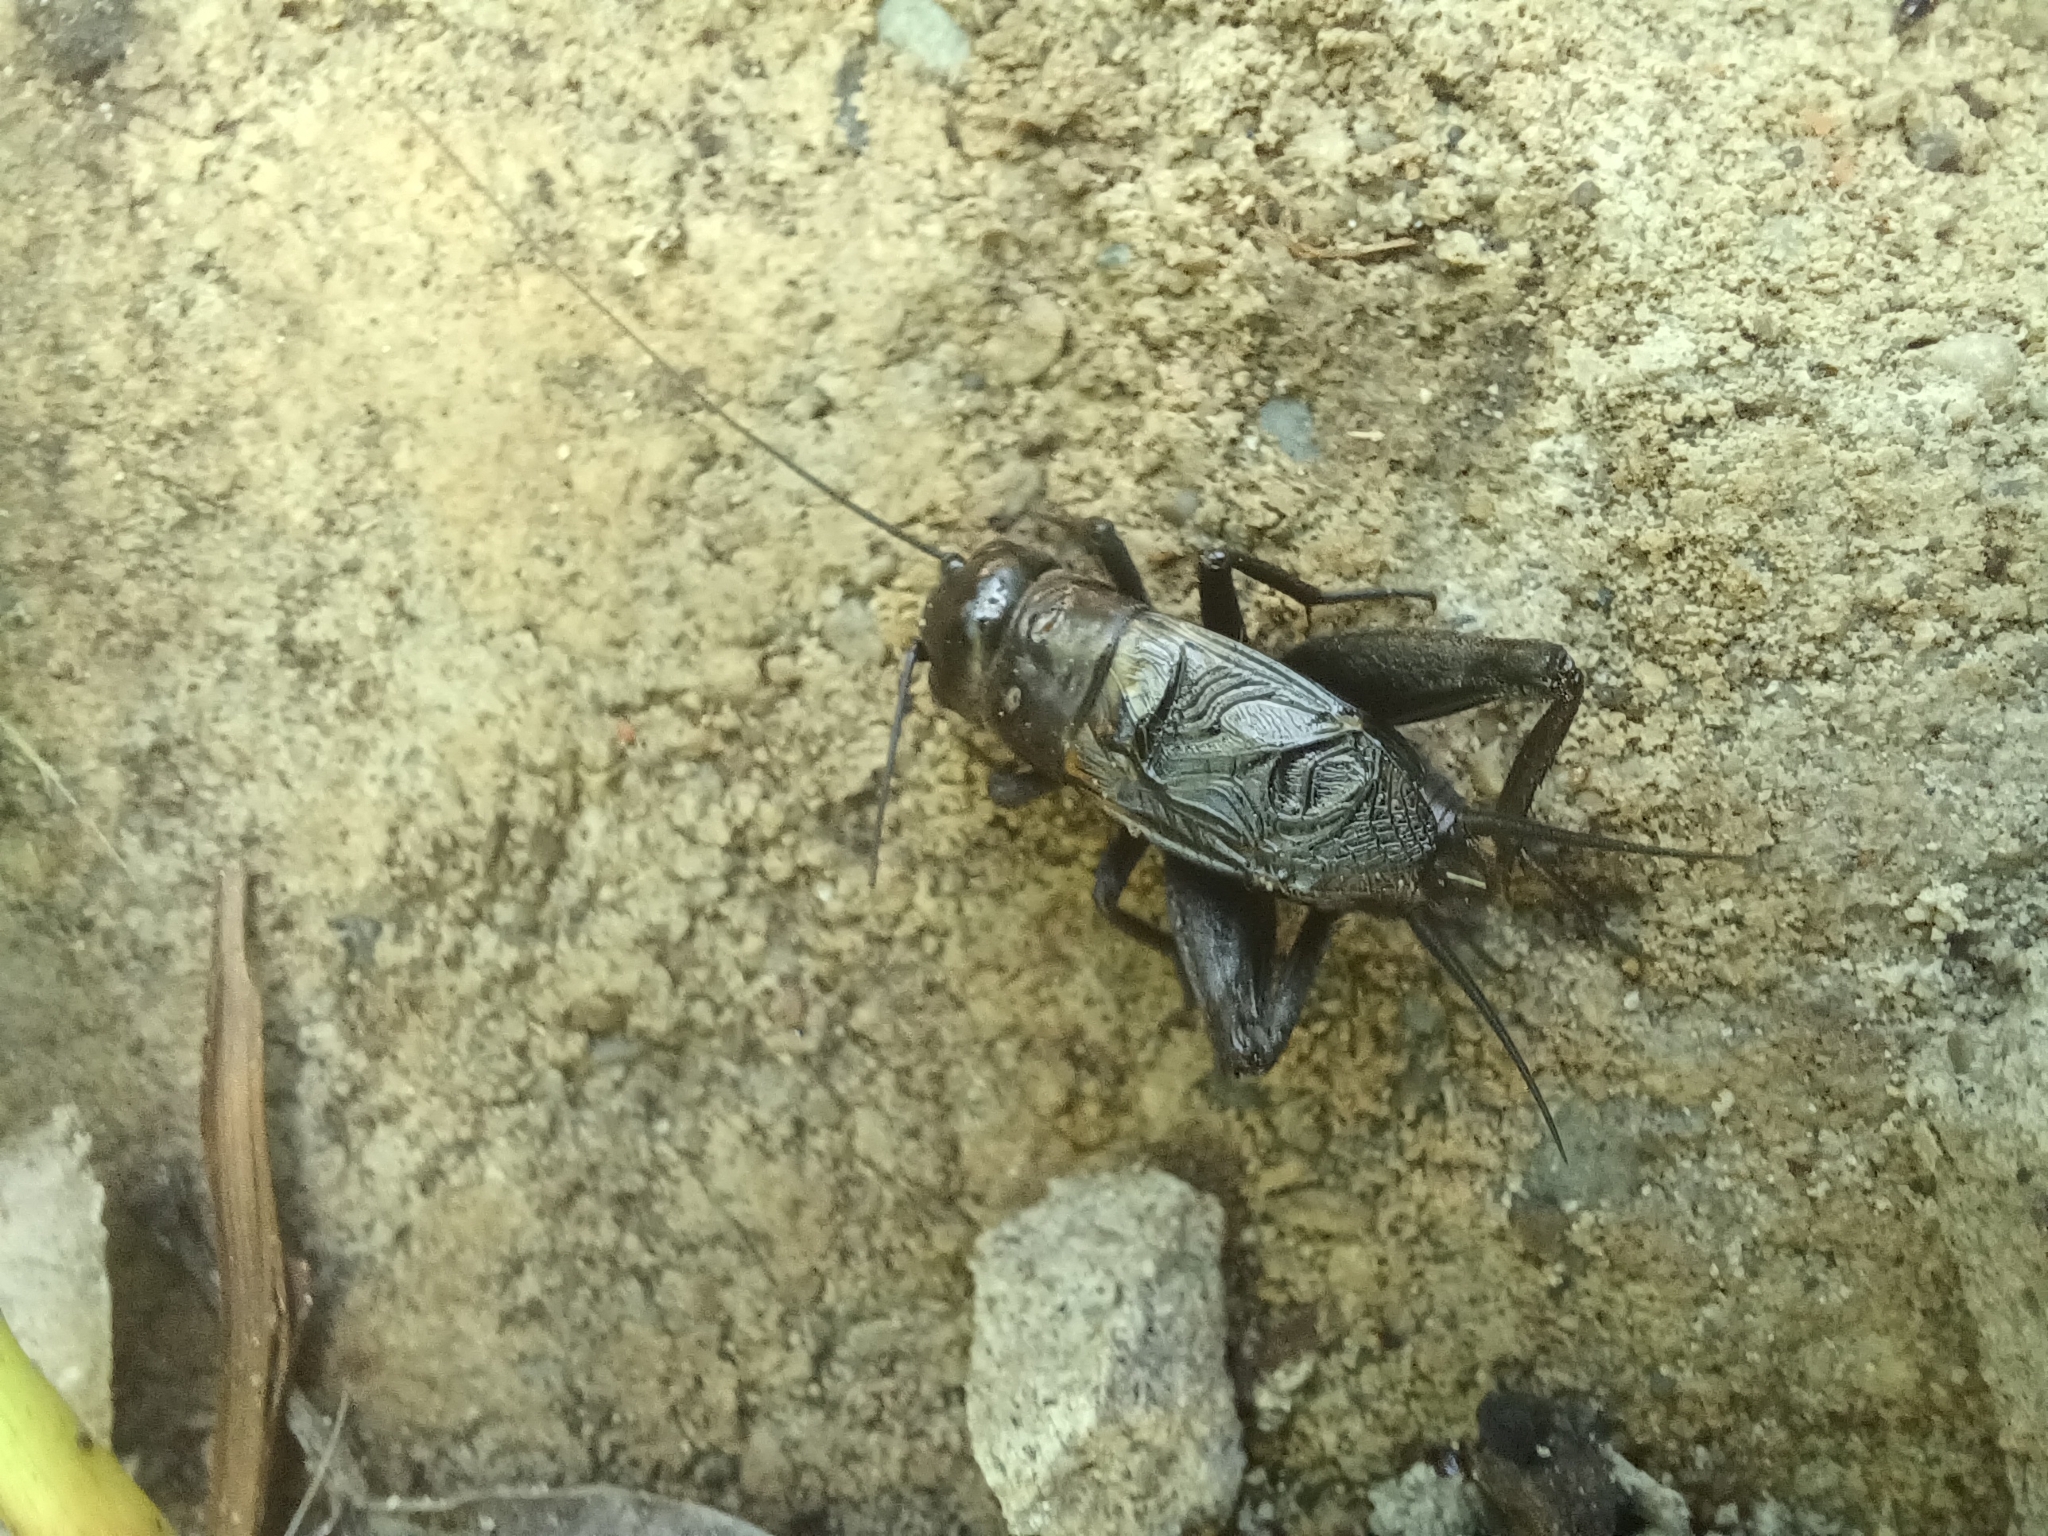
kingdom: Animalia
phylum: Arthropoda
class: Insecta
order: Orthoptera
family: Gryllidae
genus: Gryllus
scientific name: Gryllus veletis
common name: Spring field cricket
